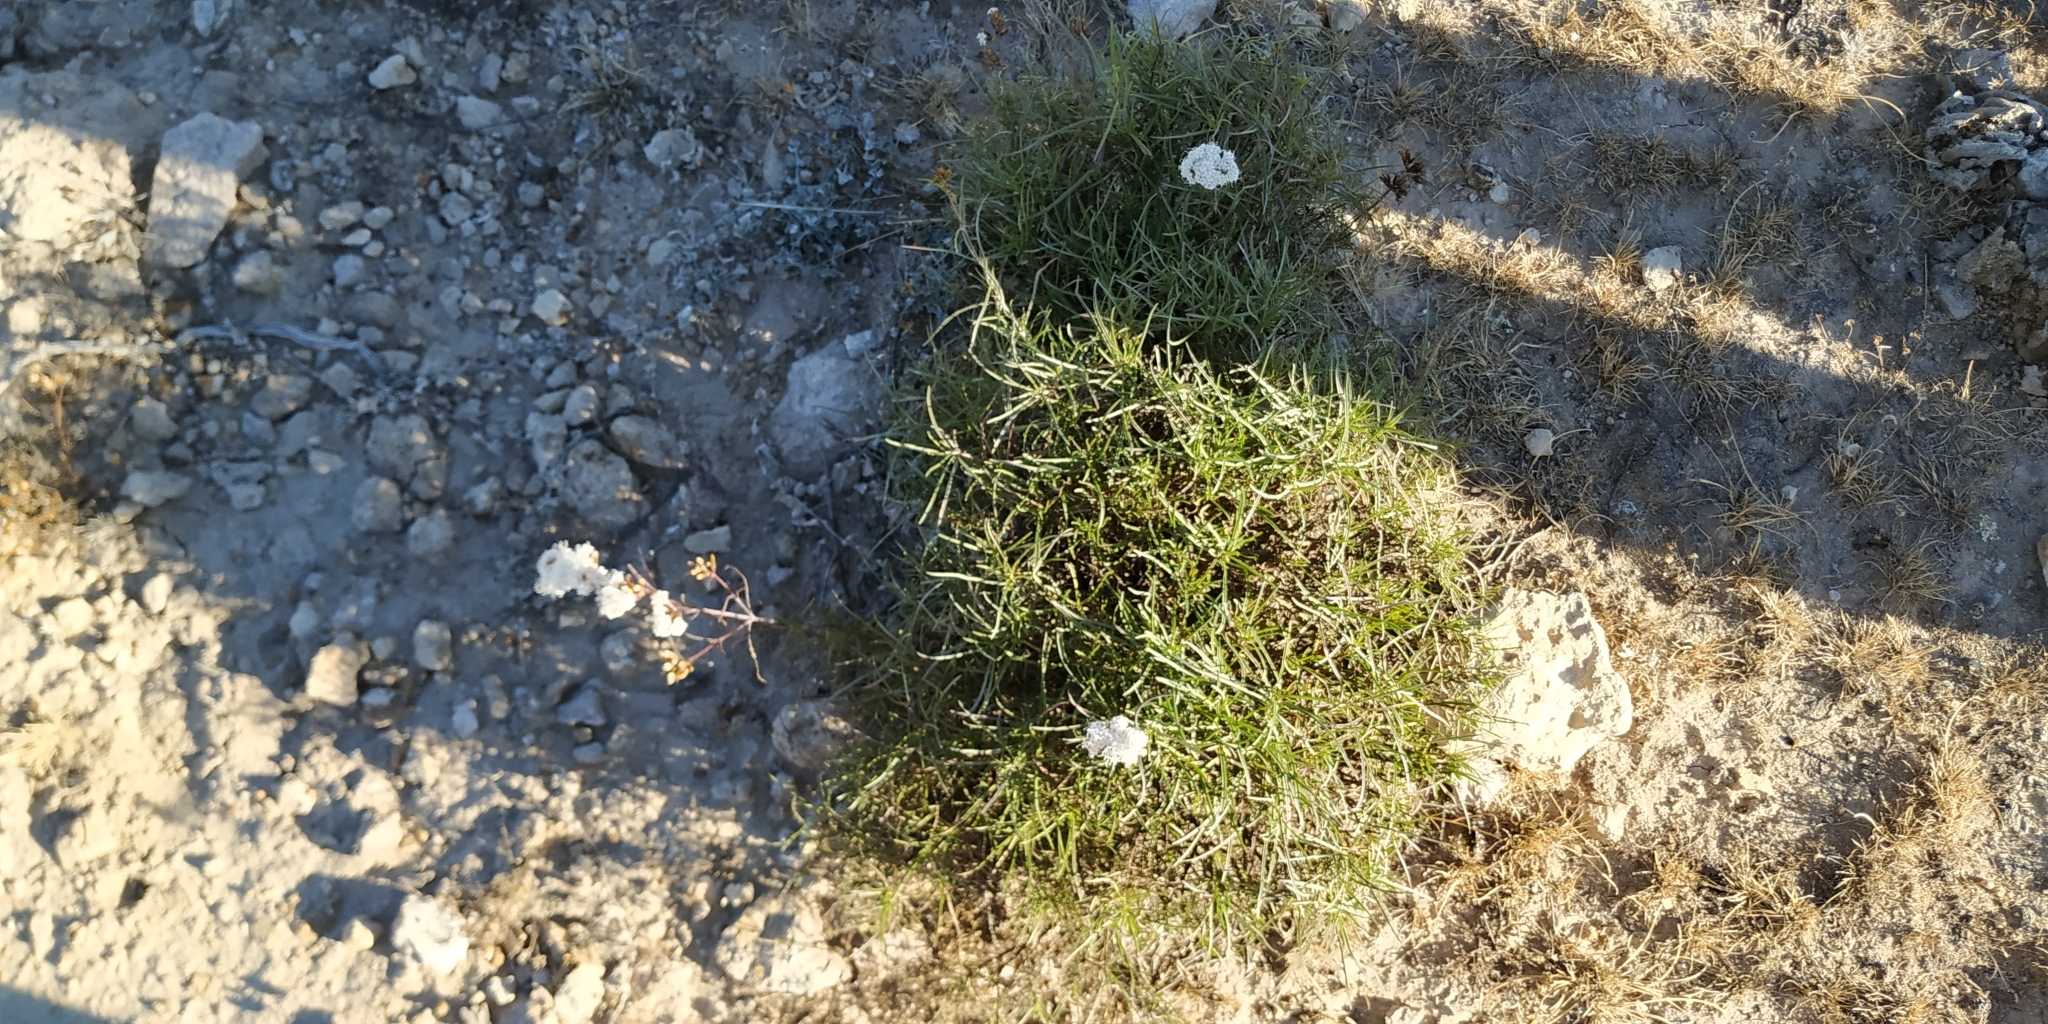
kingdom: Plantae
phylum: Tracheophyta
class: Magnoliopsida
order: Asterales
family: Asteraceae
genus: Stevia
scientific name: Stevia salicifolia
